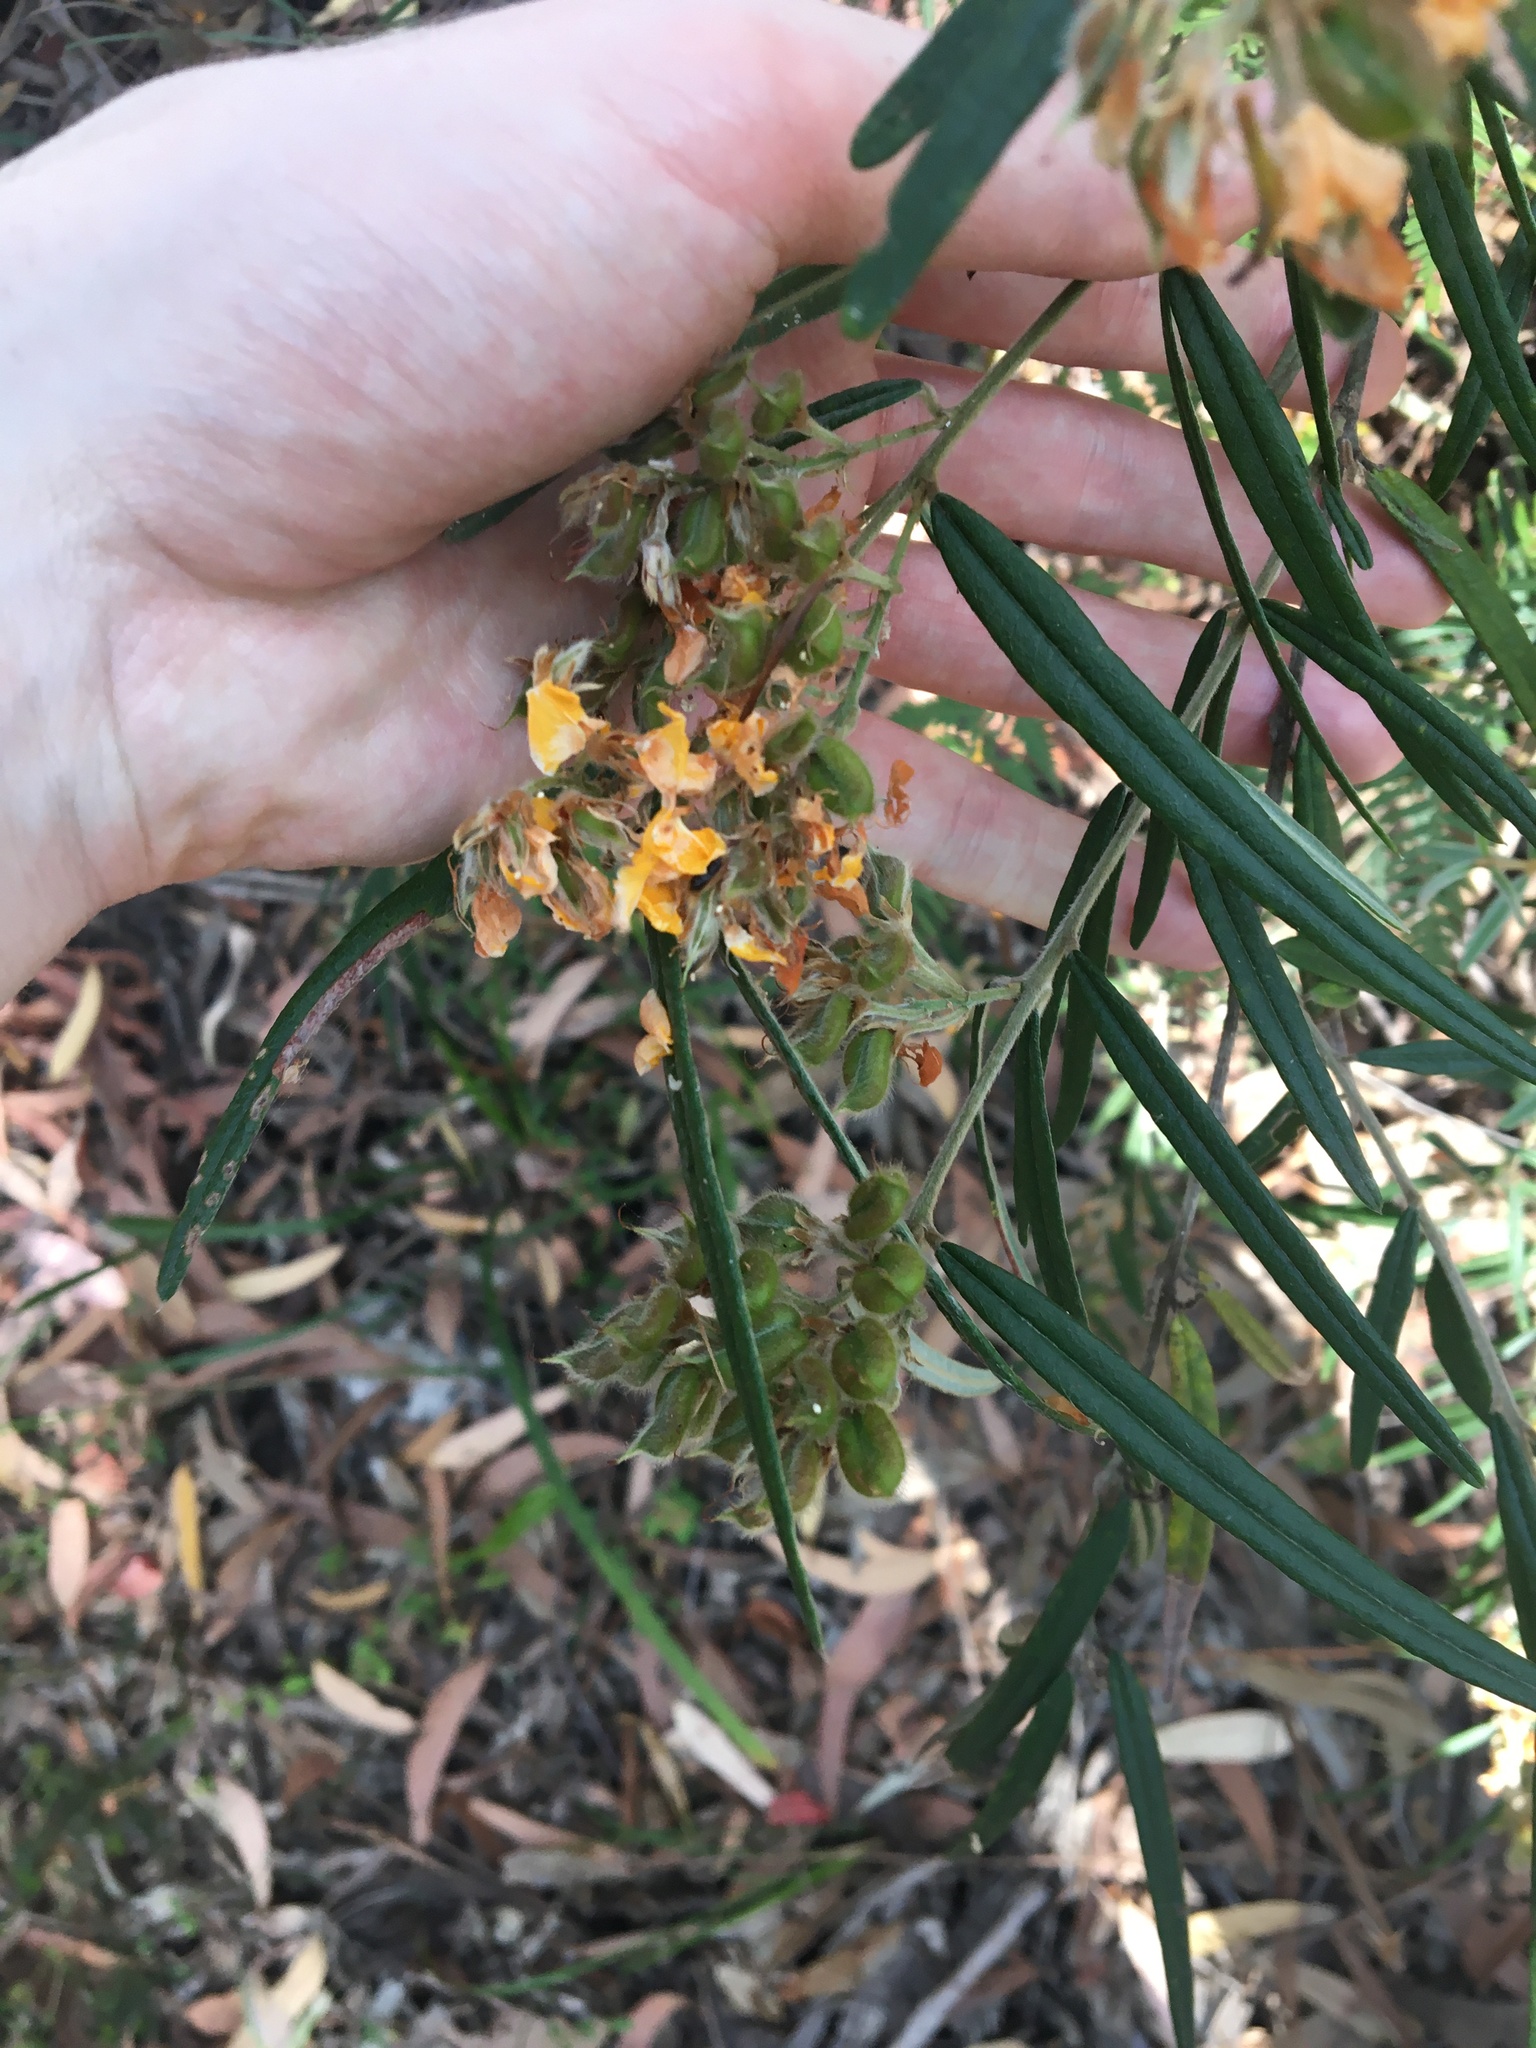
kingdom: Plantae
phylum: Tracheophyta
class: Magnoliopsida
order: Fabales
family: Fabaceae
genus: Oxylobium
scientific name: Oxylobium robustum
